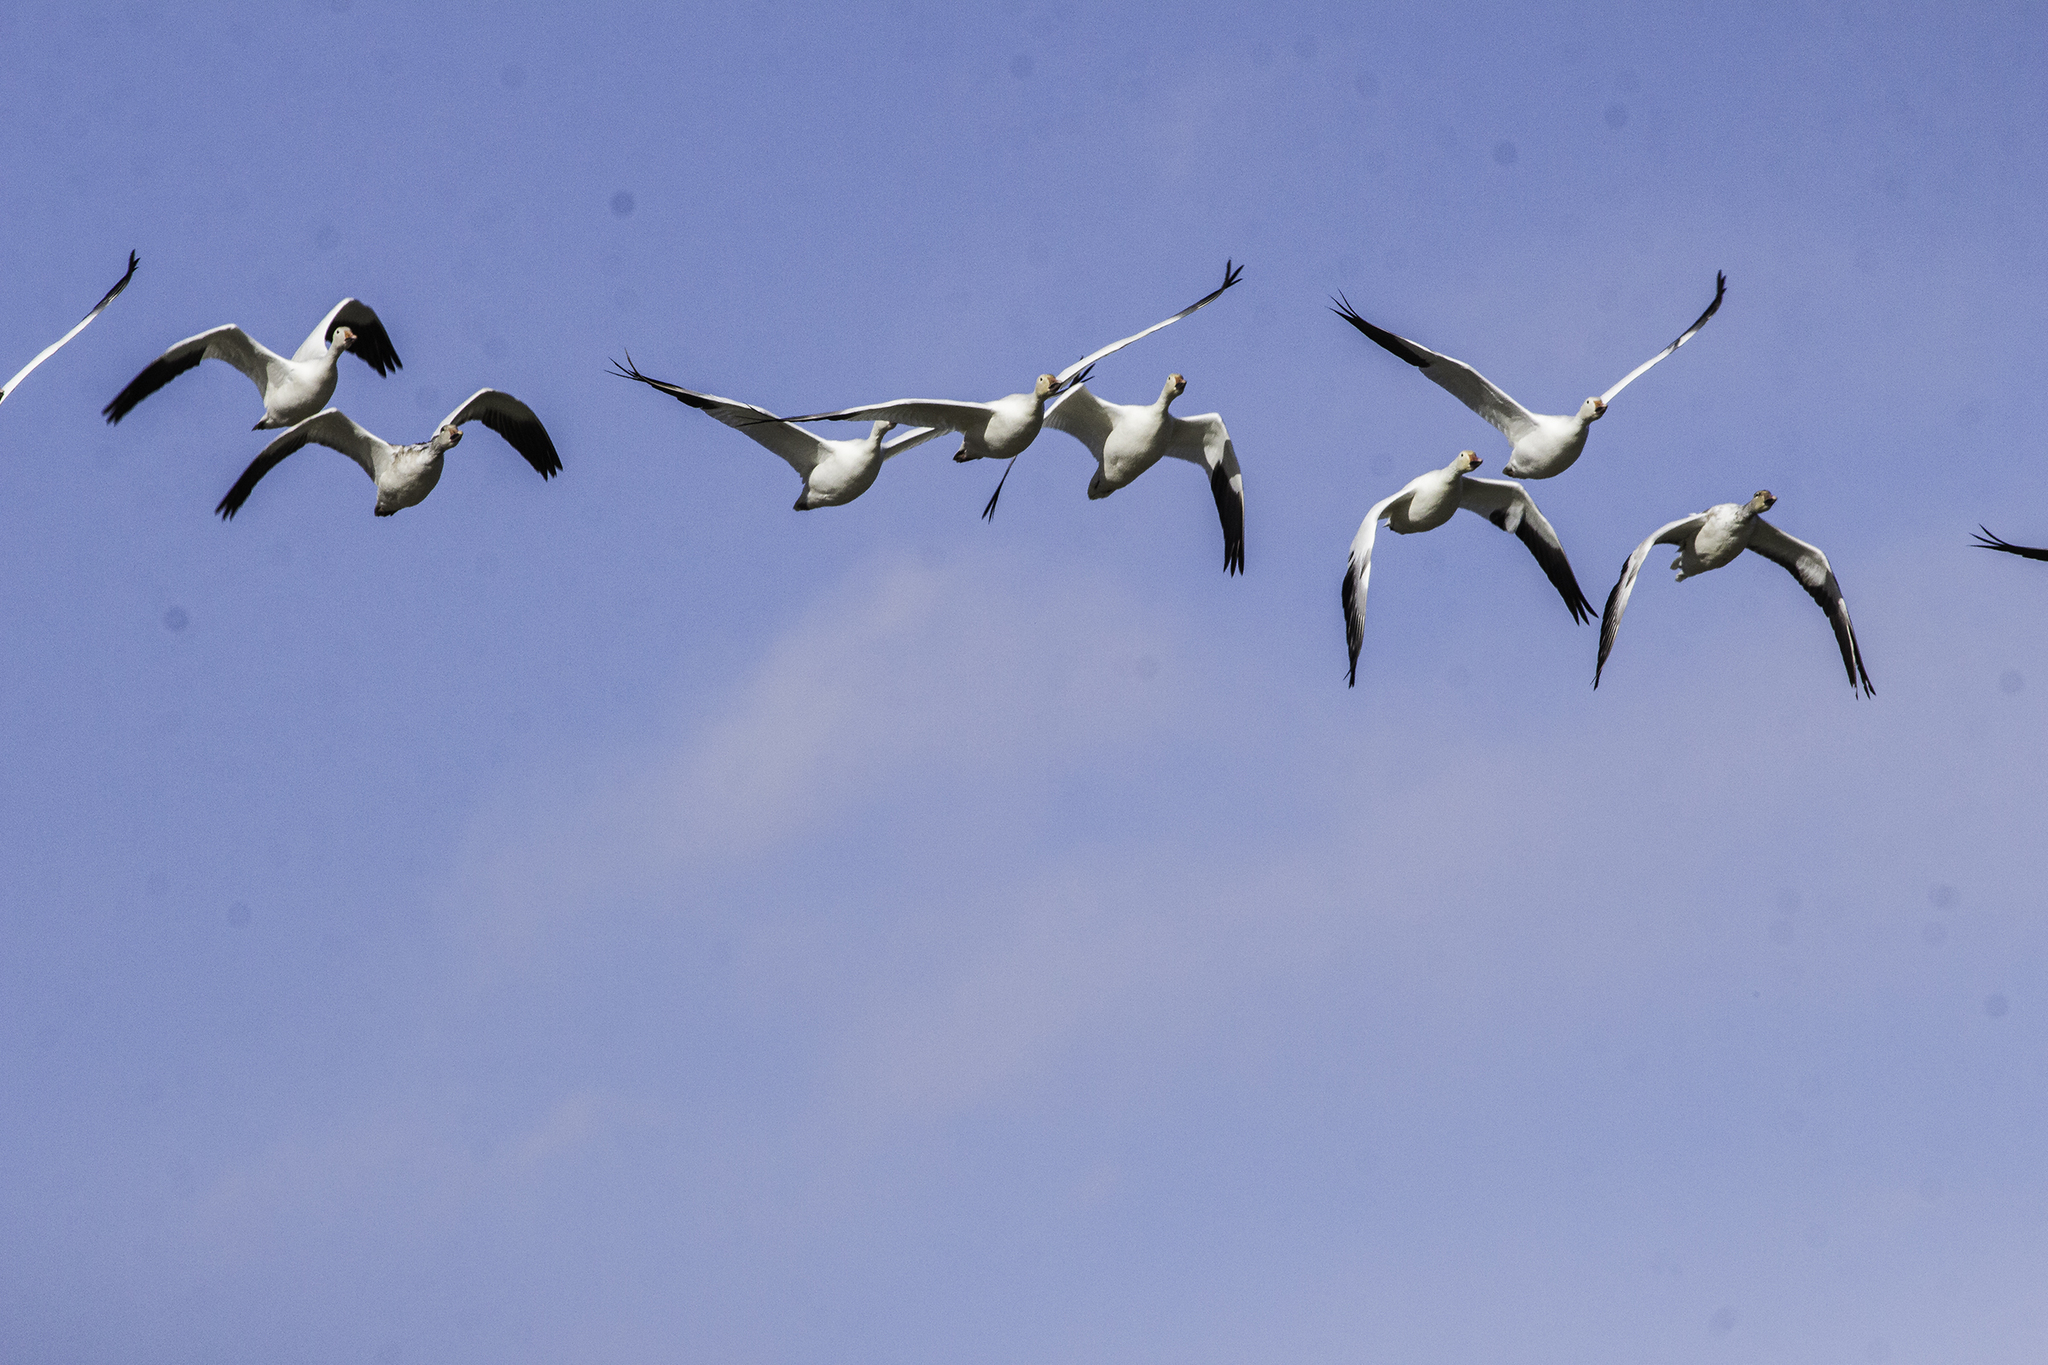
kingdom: Animalia
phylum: Chordata
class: Aves
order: Anseriformes
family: Anatidae
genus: Anser
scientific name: Anser caerulescens
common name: Snow goose
